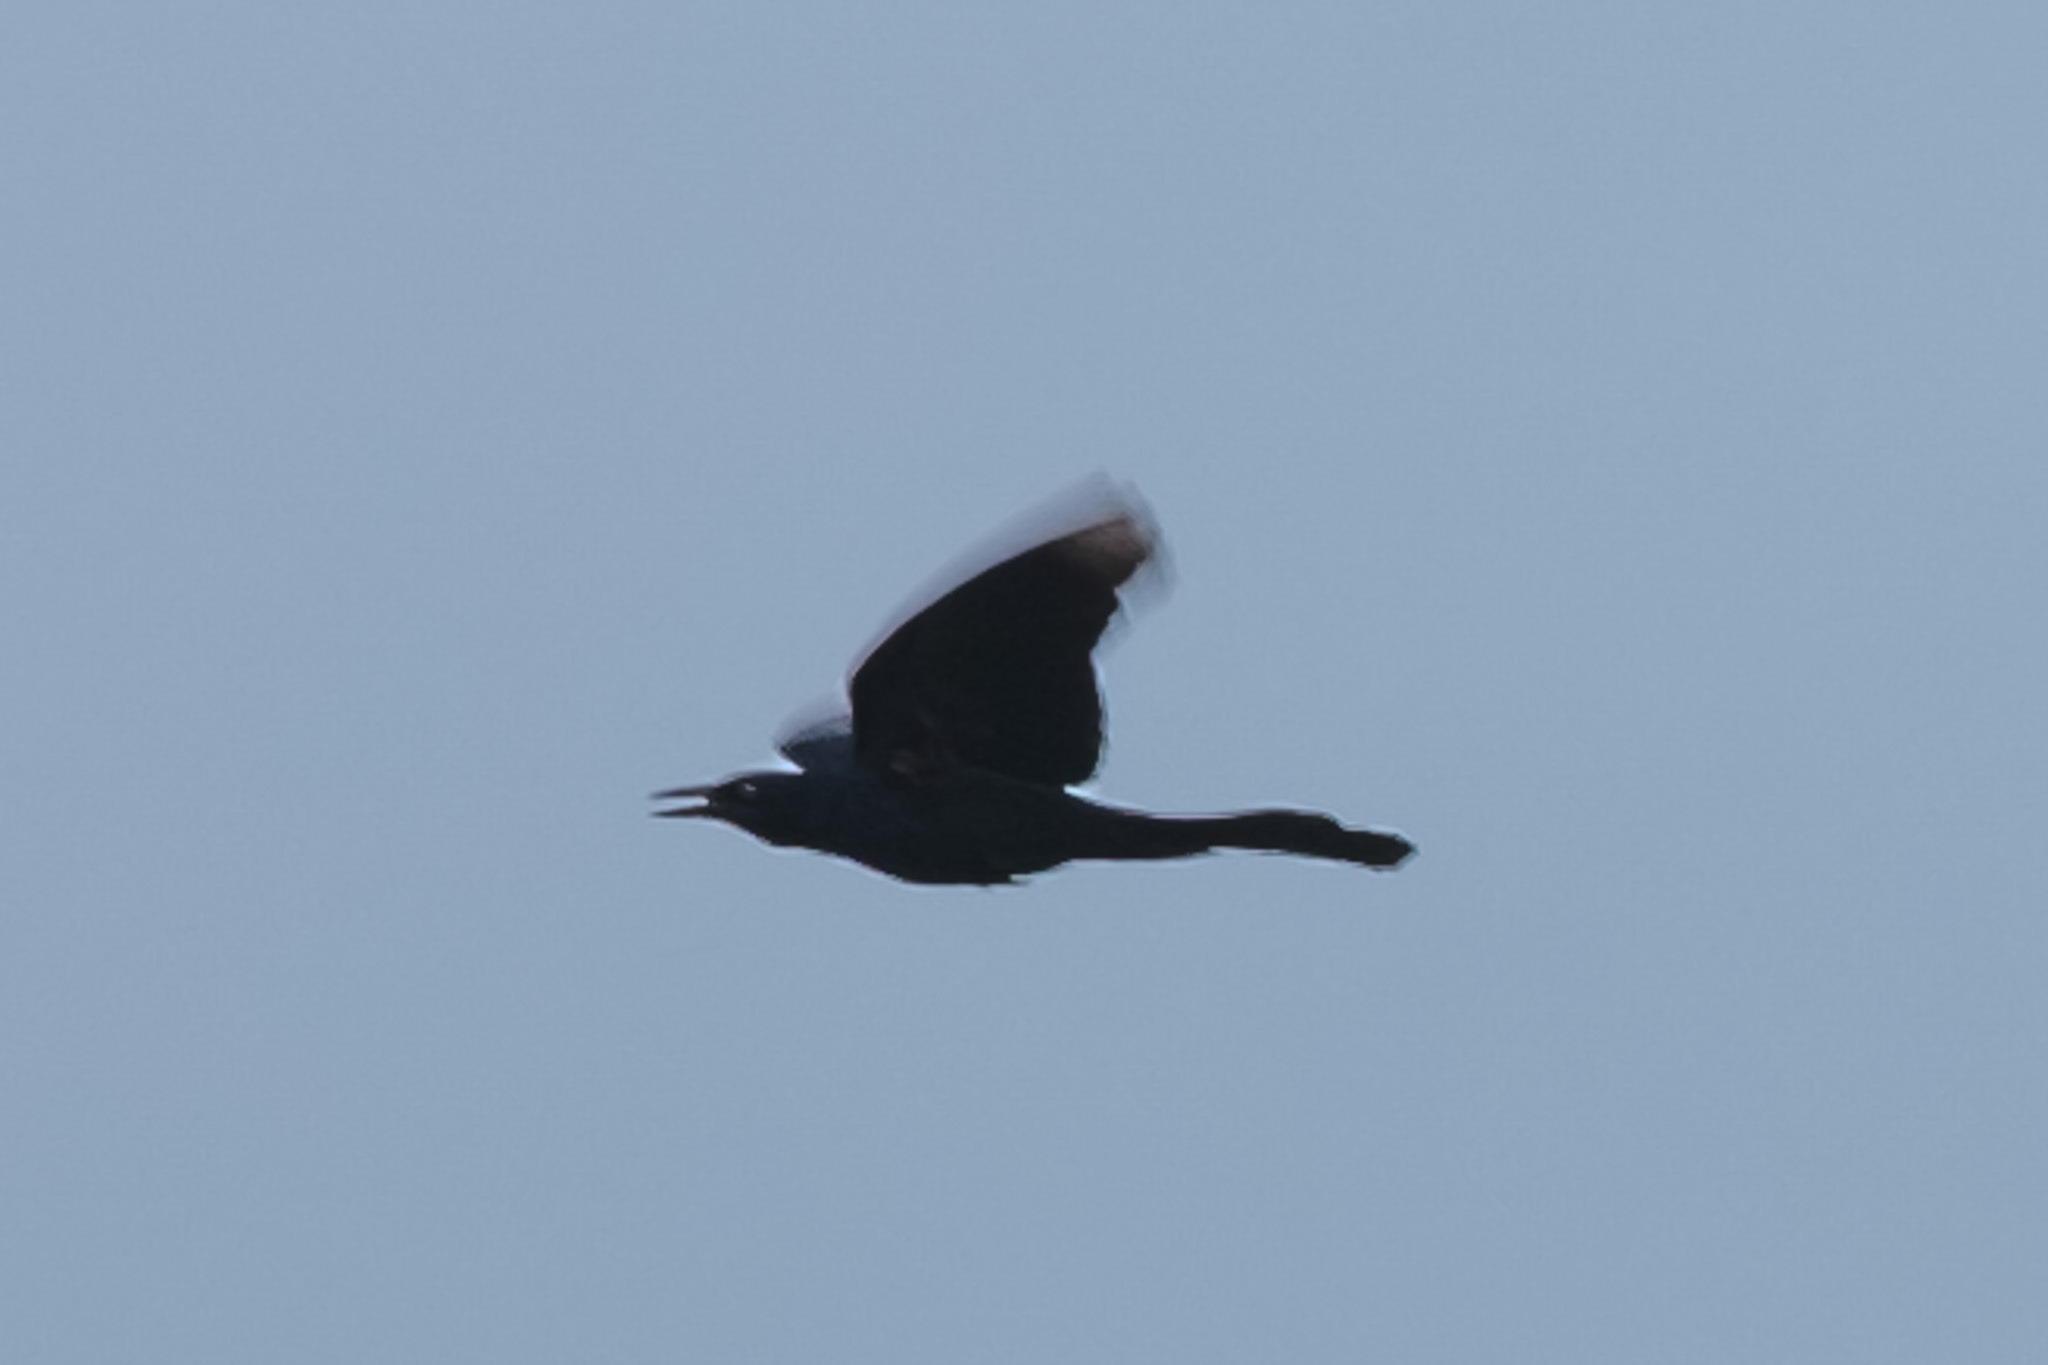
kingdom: Animalia
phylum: Chordata
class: Aves
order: Passeriformes
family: Icteridae
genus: Quiscalus
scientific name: Quiscalus mexicanus
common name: Great-tailed grackle
